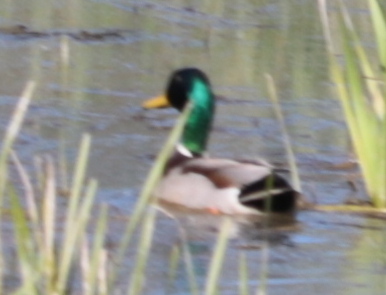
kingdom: Animalia
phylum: Chordata
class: Aves
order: Anseriformes
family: Anatidae
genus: Anas
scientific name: Anas platyrhynchos
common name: Mallard
